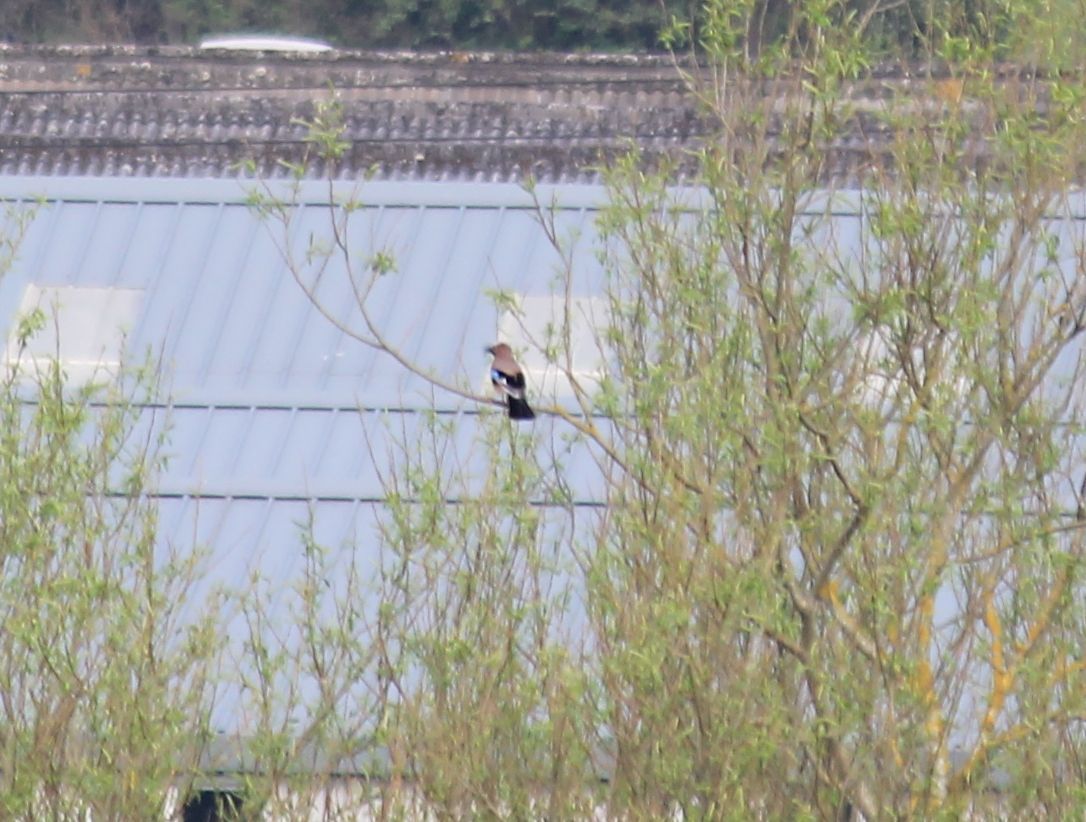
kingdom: Animalia
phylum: Chordata
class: Aves
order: Passeriformes
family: Corvidae
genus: Garrulus
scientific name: Garrulus glandarius
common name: Eurasian jay
